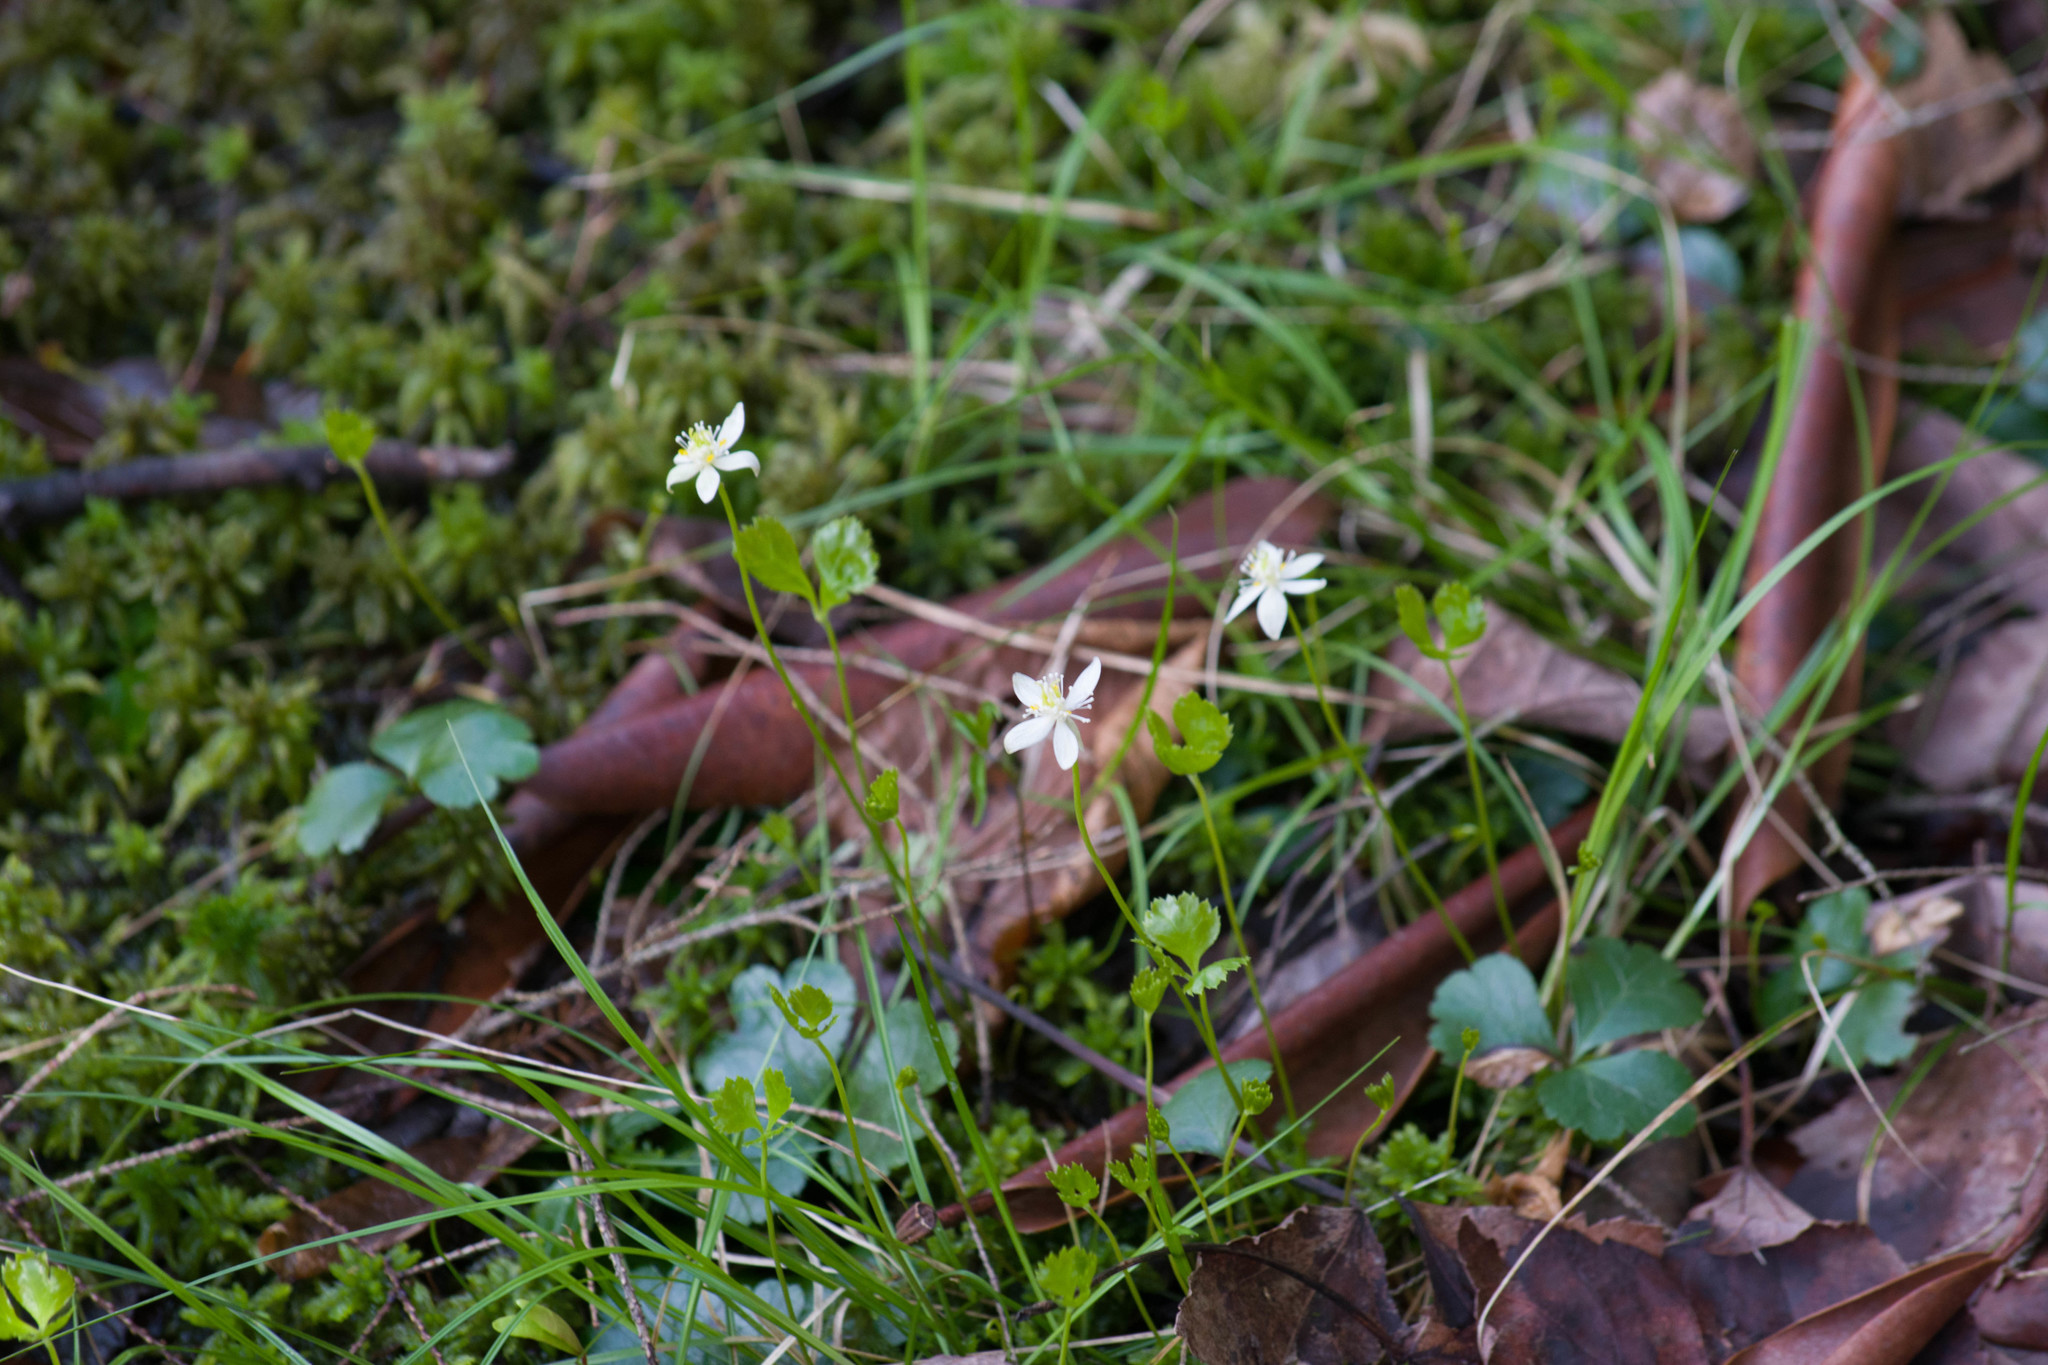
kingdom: Plantae
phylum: Tracheophyta
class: Magnoliopsida
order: Ranunculales
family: Ranunculaceae
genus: Coptis
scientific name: Coptis trifolia
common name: Canker-root
